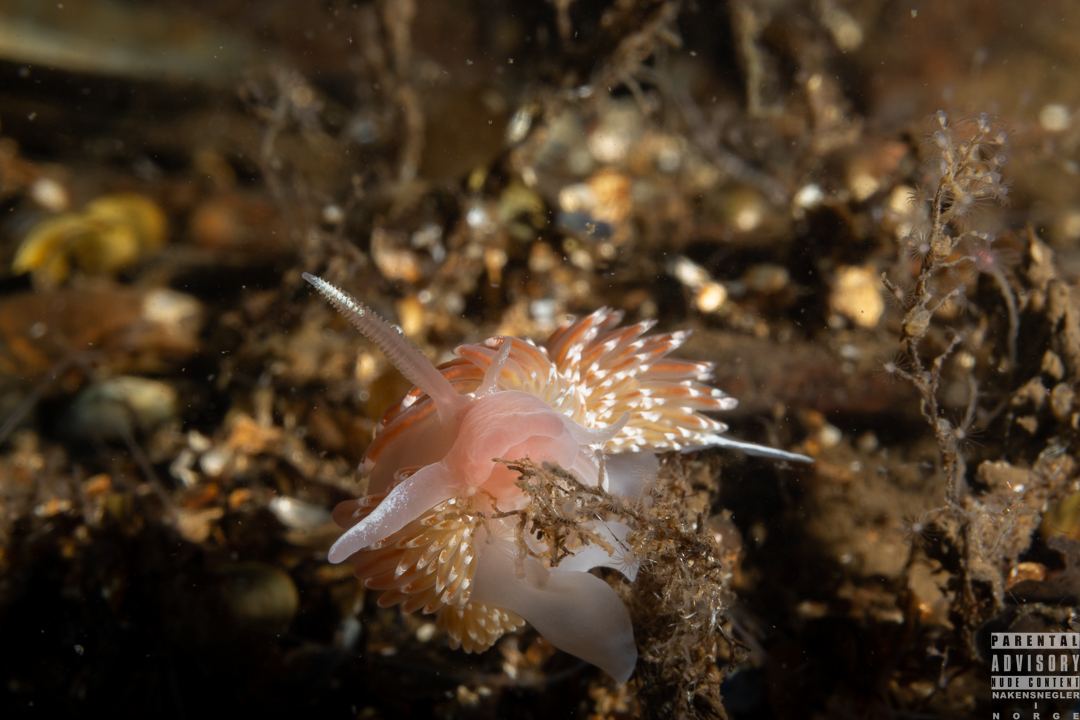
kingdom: Animalia
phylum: Mollusca
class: Gastropoda
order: Nudibranchia
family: Facelinidae
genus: Facelina
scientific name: Facelina bostoniensis
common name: Boston facelina
